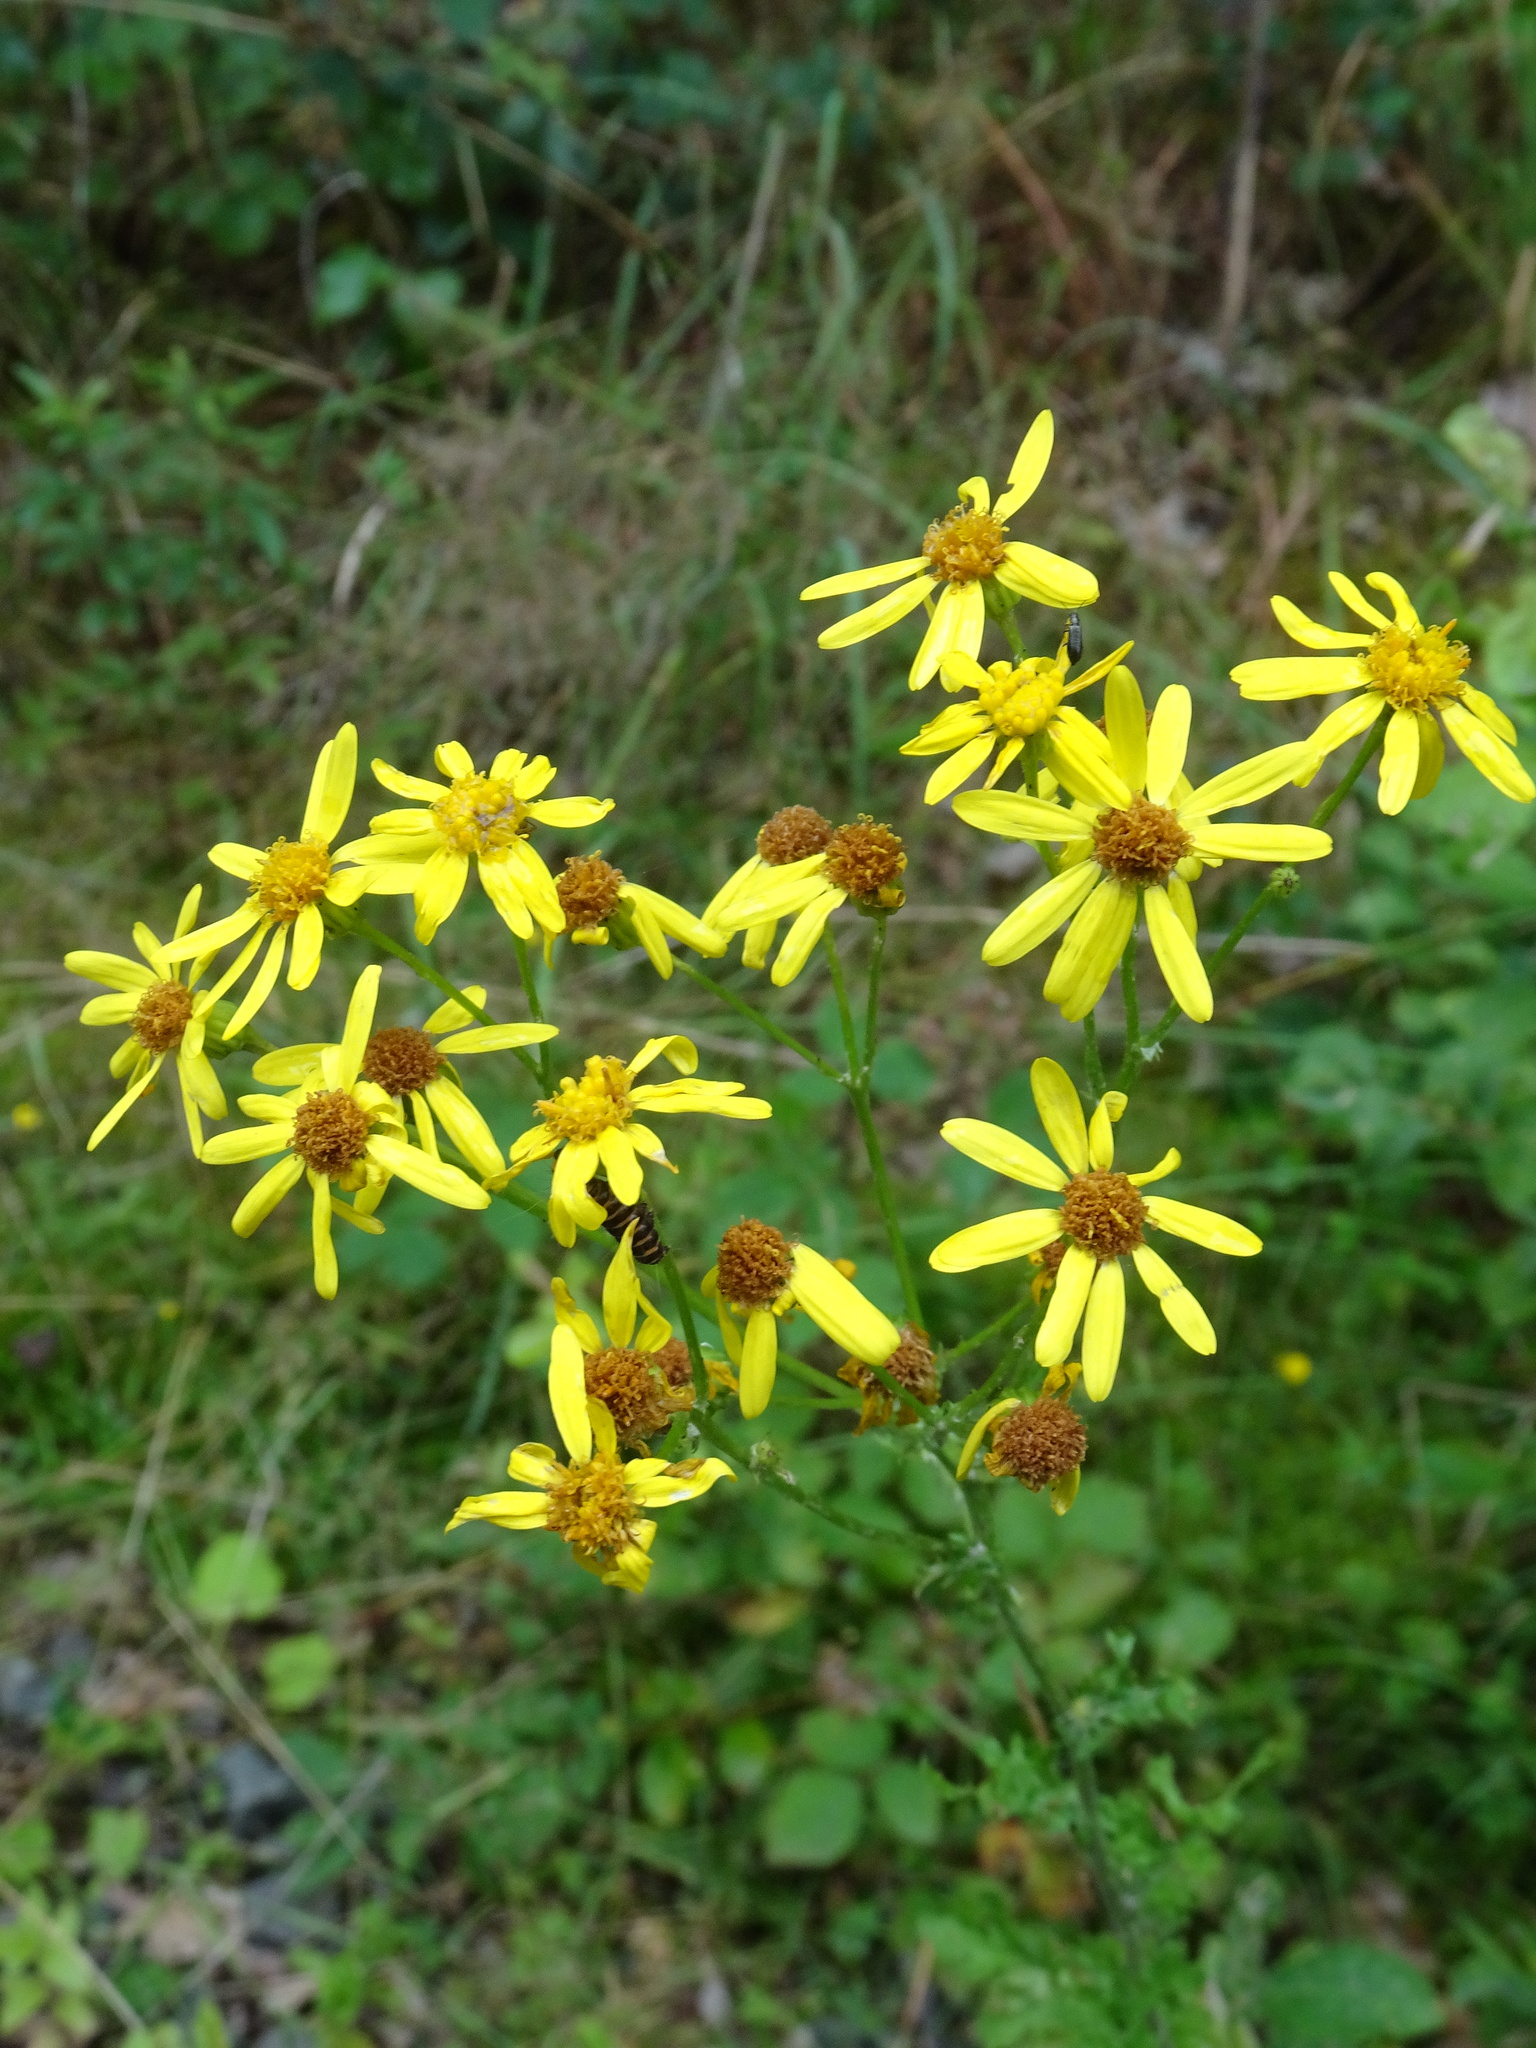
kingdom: Plantae
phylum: Tracheophyta
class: Magnoliopsida
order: Asterales
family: Asteraceae
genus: Jacobaea
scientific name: Jacobaea vulgaris
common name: Stinking willie
